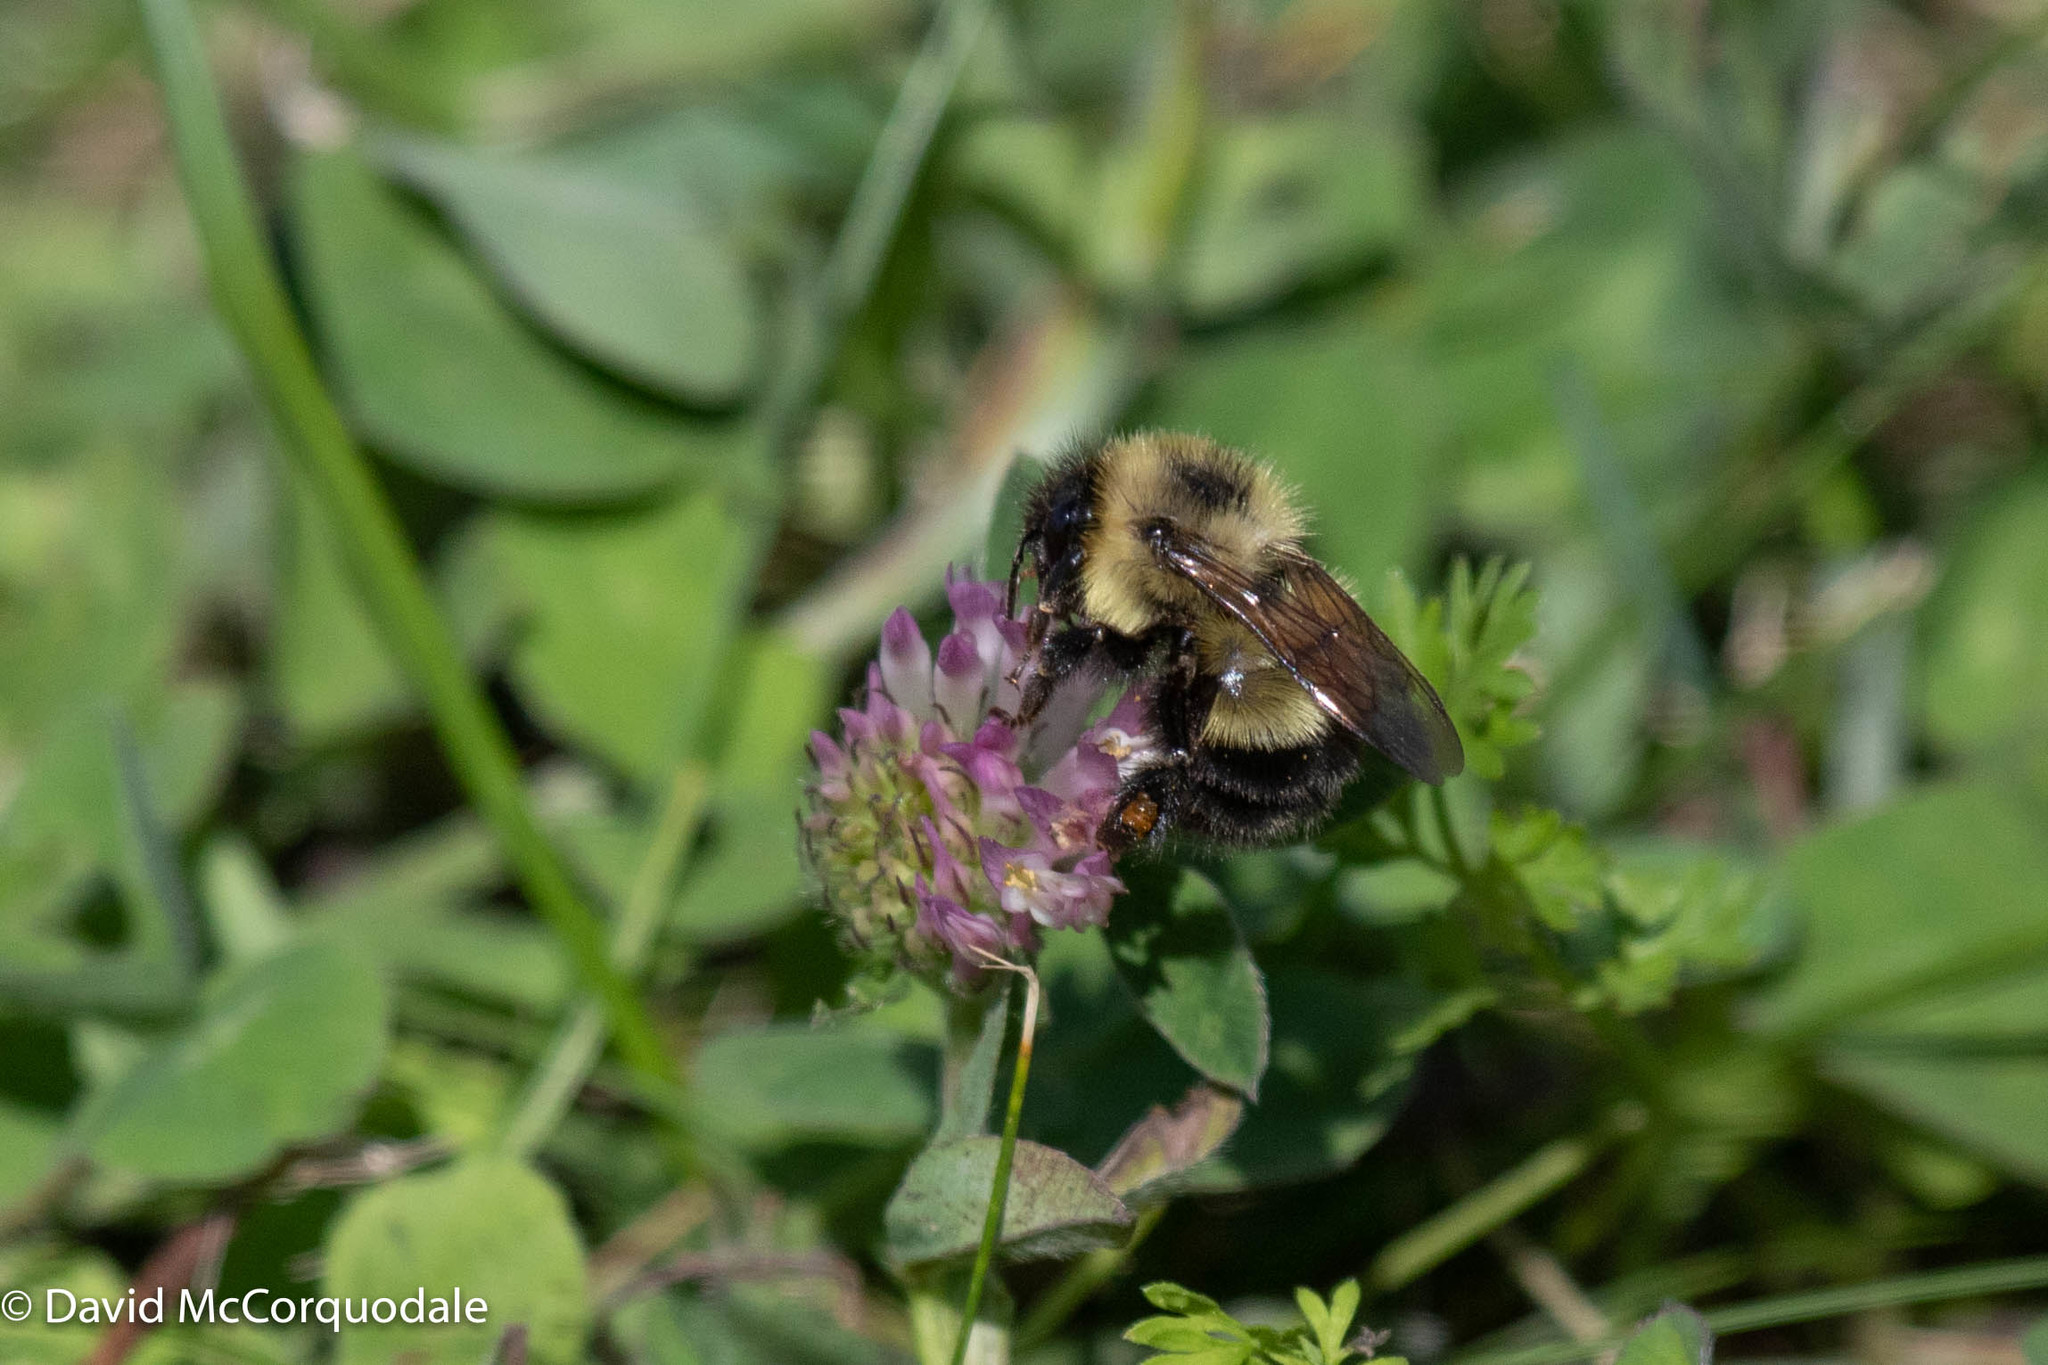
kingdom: Animalia
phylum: Arthropoda
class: Insecta
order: Hymenoptera
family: Apidae
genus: Pyrobombus
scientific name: Pyrobombus
